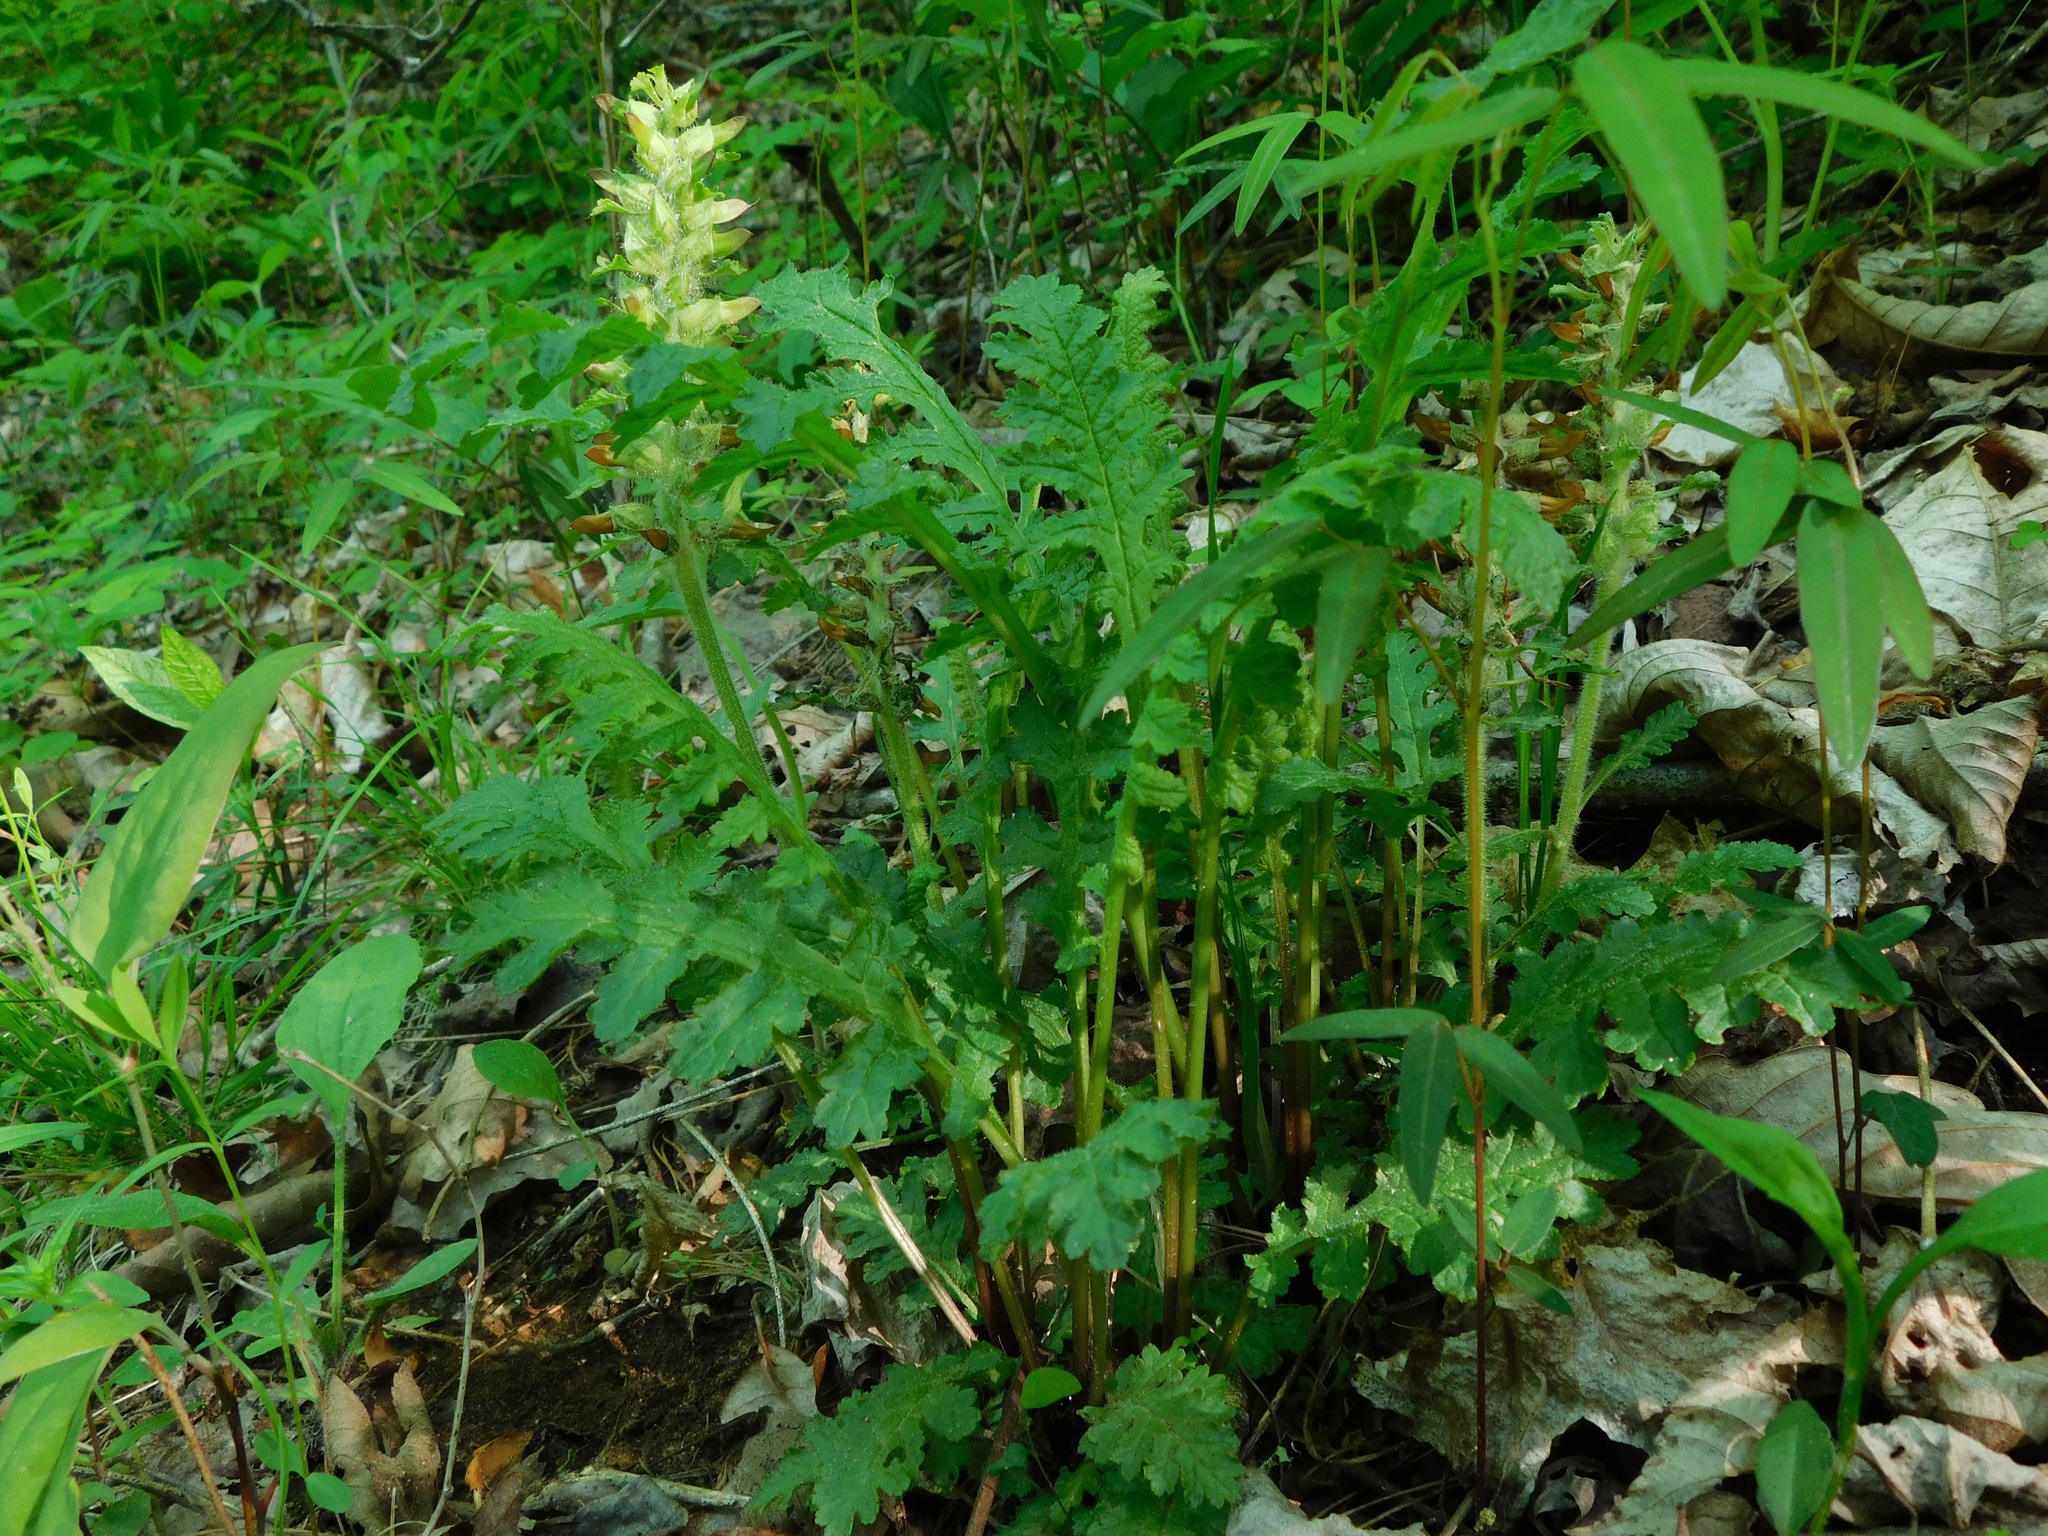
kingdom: Plantae
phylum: Tracheophyta
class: Magnoliopsida
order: Lamiales
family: Orobanchaceae
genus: Pedicularis
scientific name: Pedicularis canadensis
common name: Early lousewort
